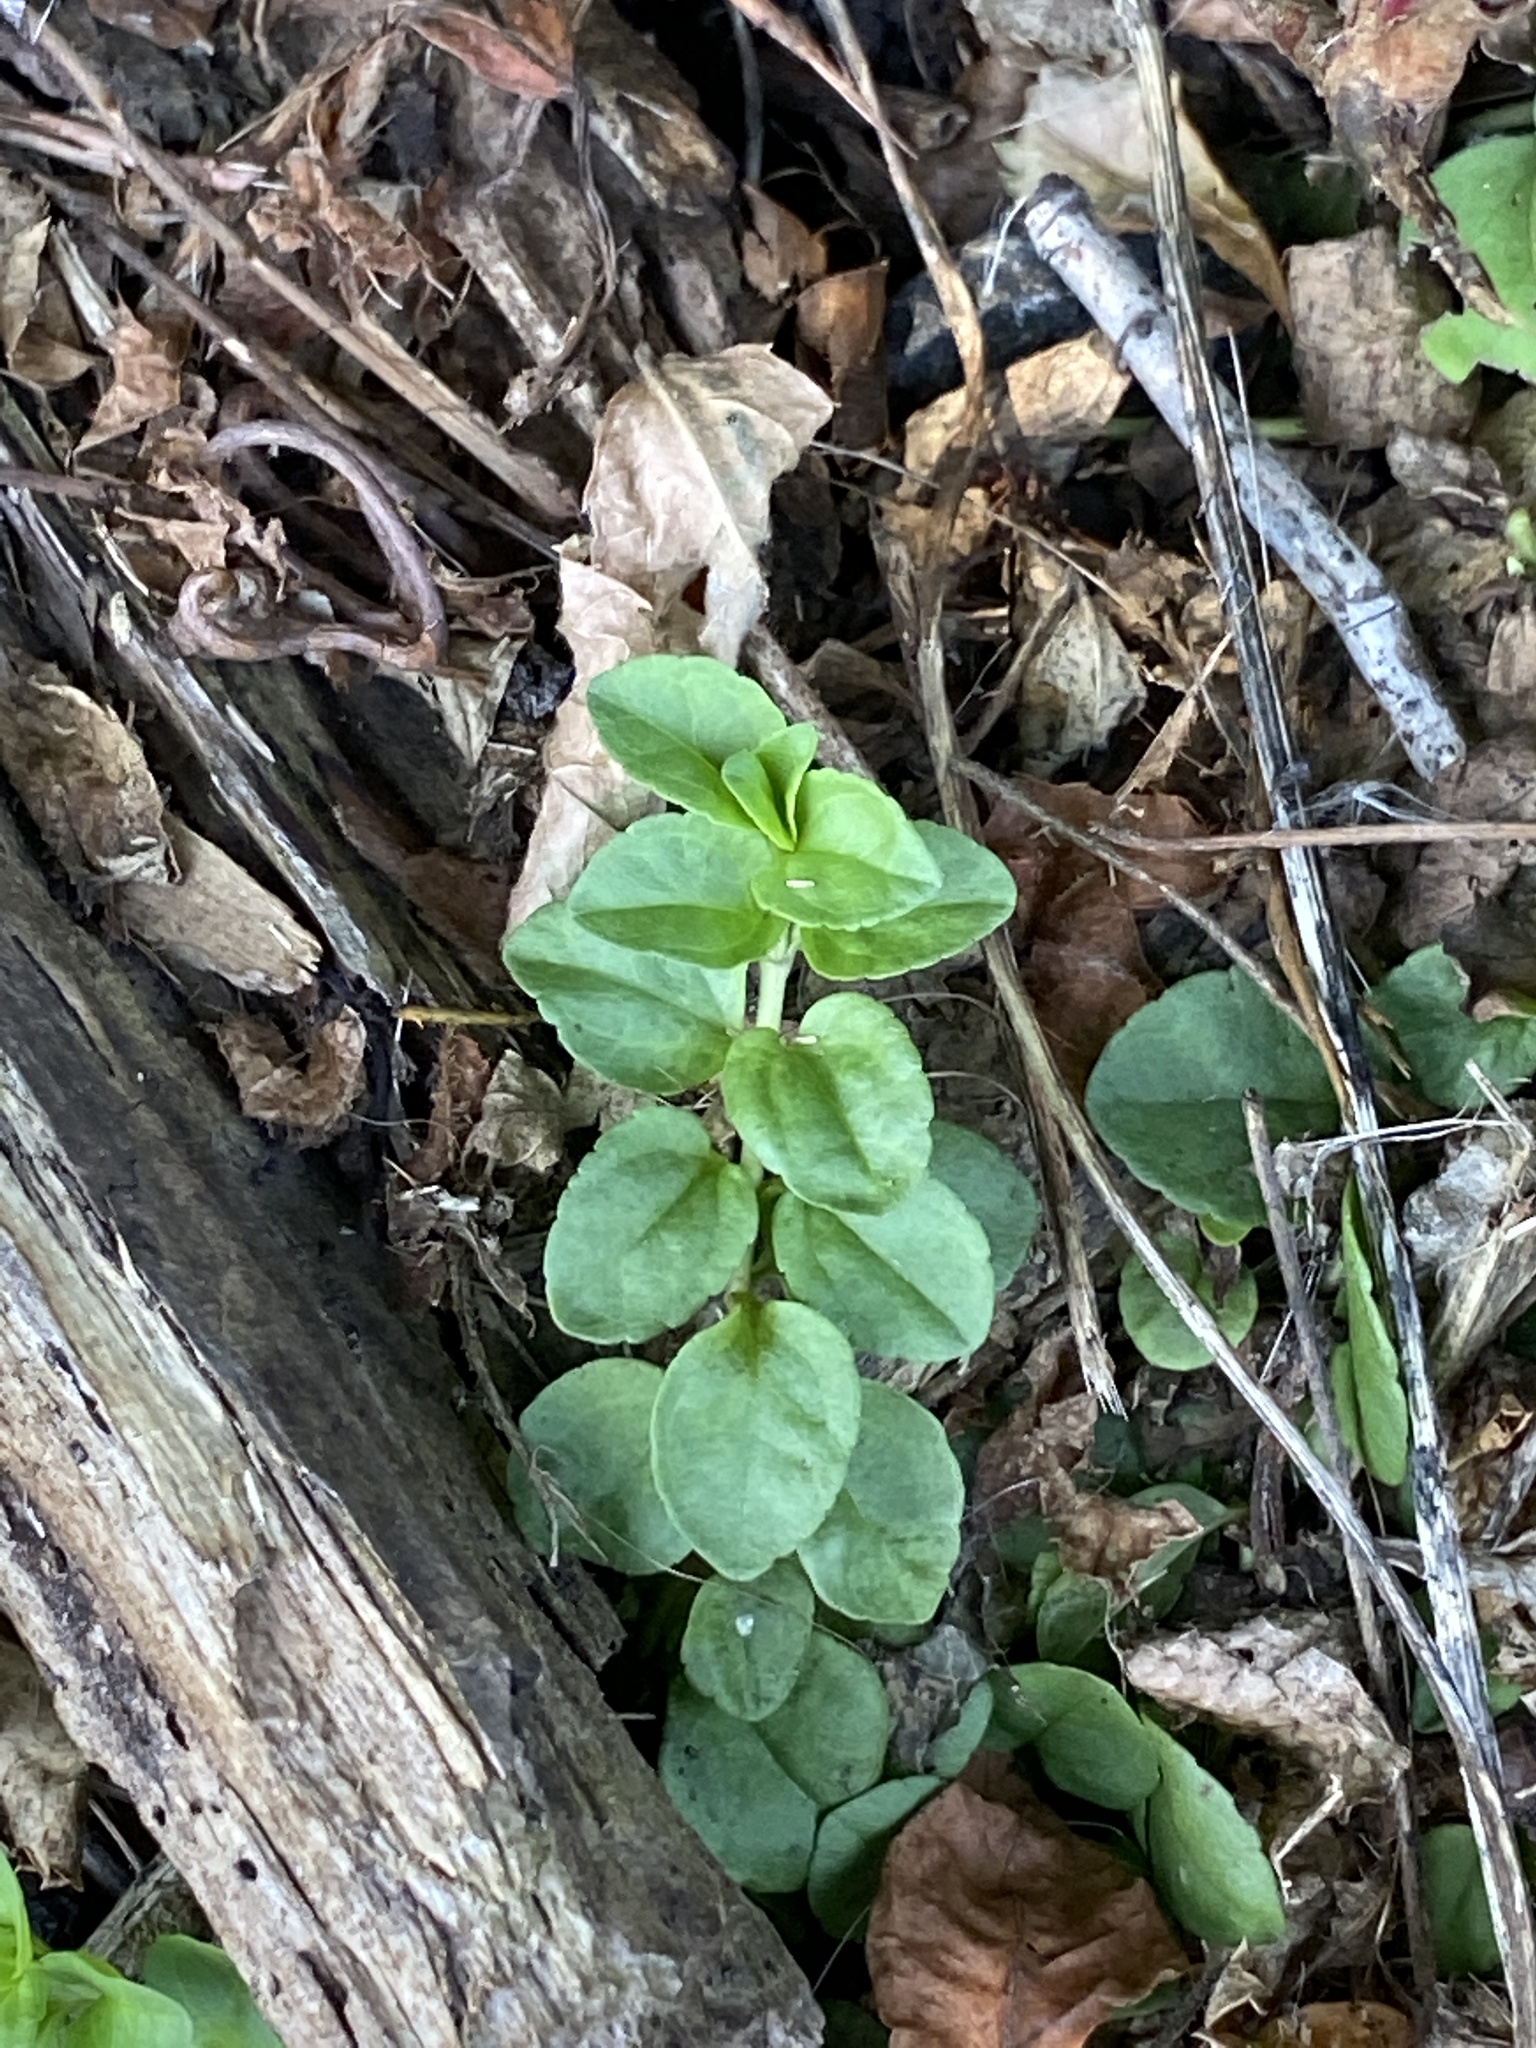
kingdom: Plantae
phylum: Tracheophyta
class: Magnoliopsida
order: Lamiales
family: Plantaginaceae
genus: Veronica
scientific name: Veronica serpyllifolia
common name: Thyme-leaved speedwell
